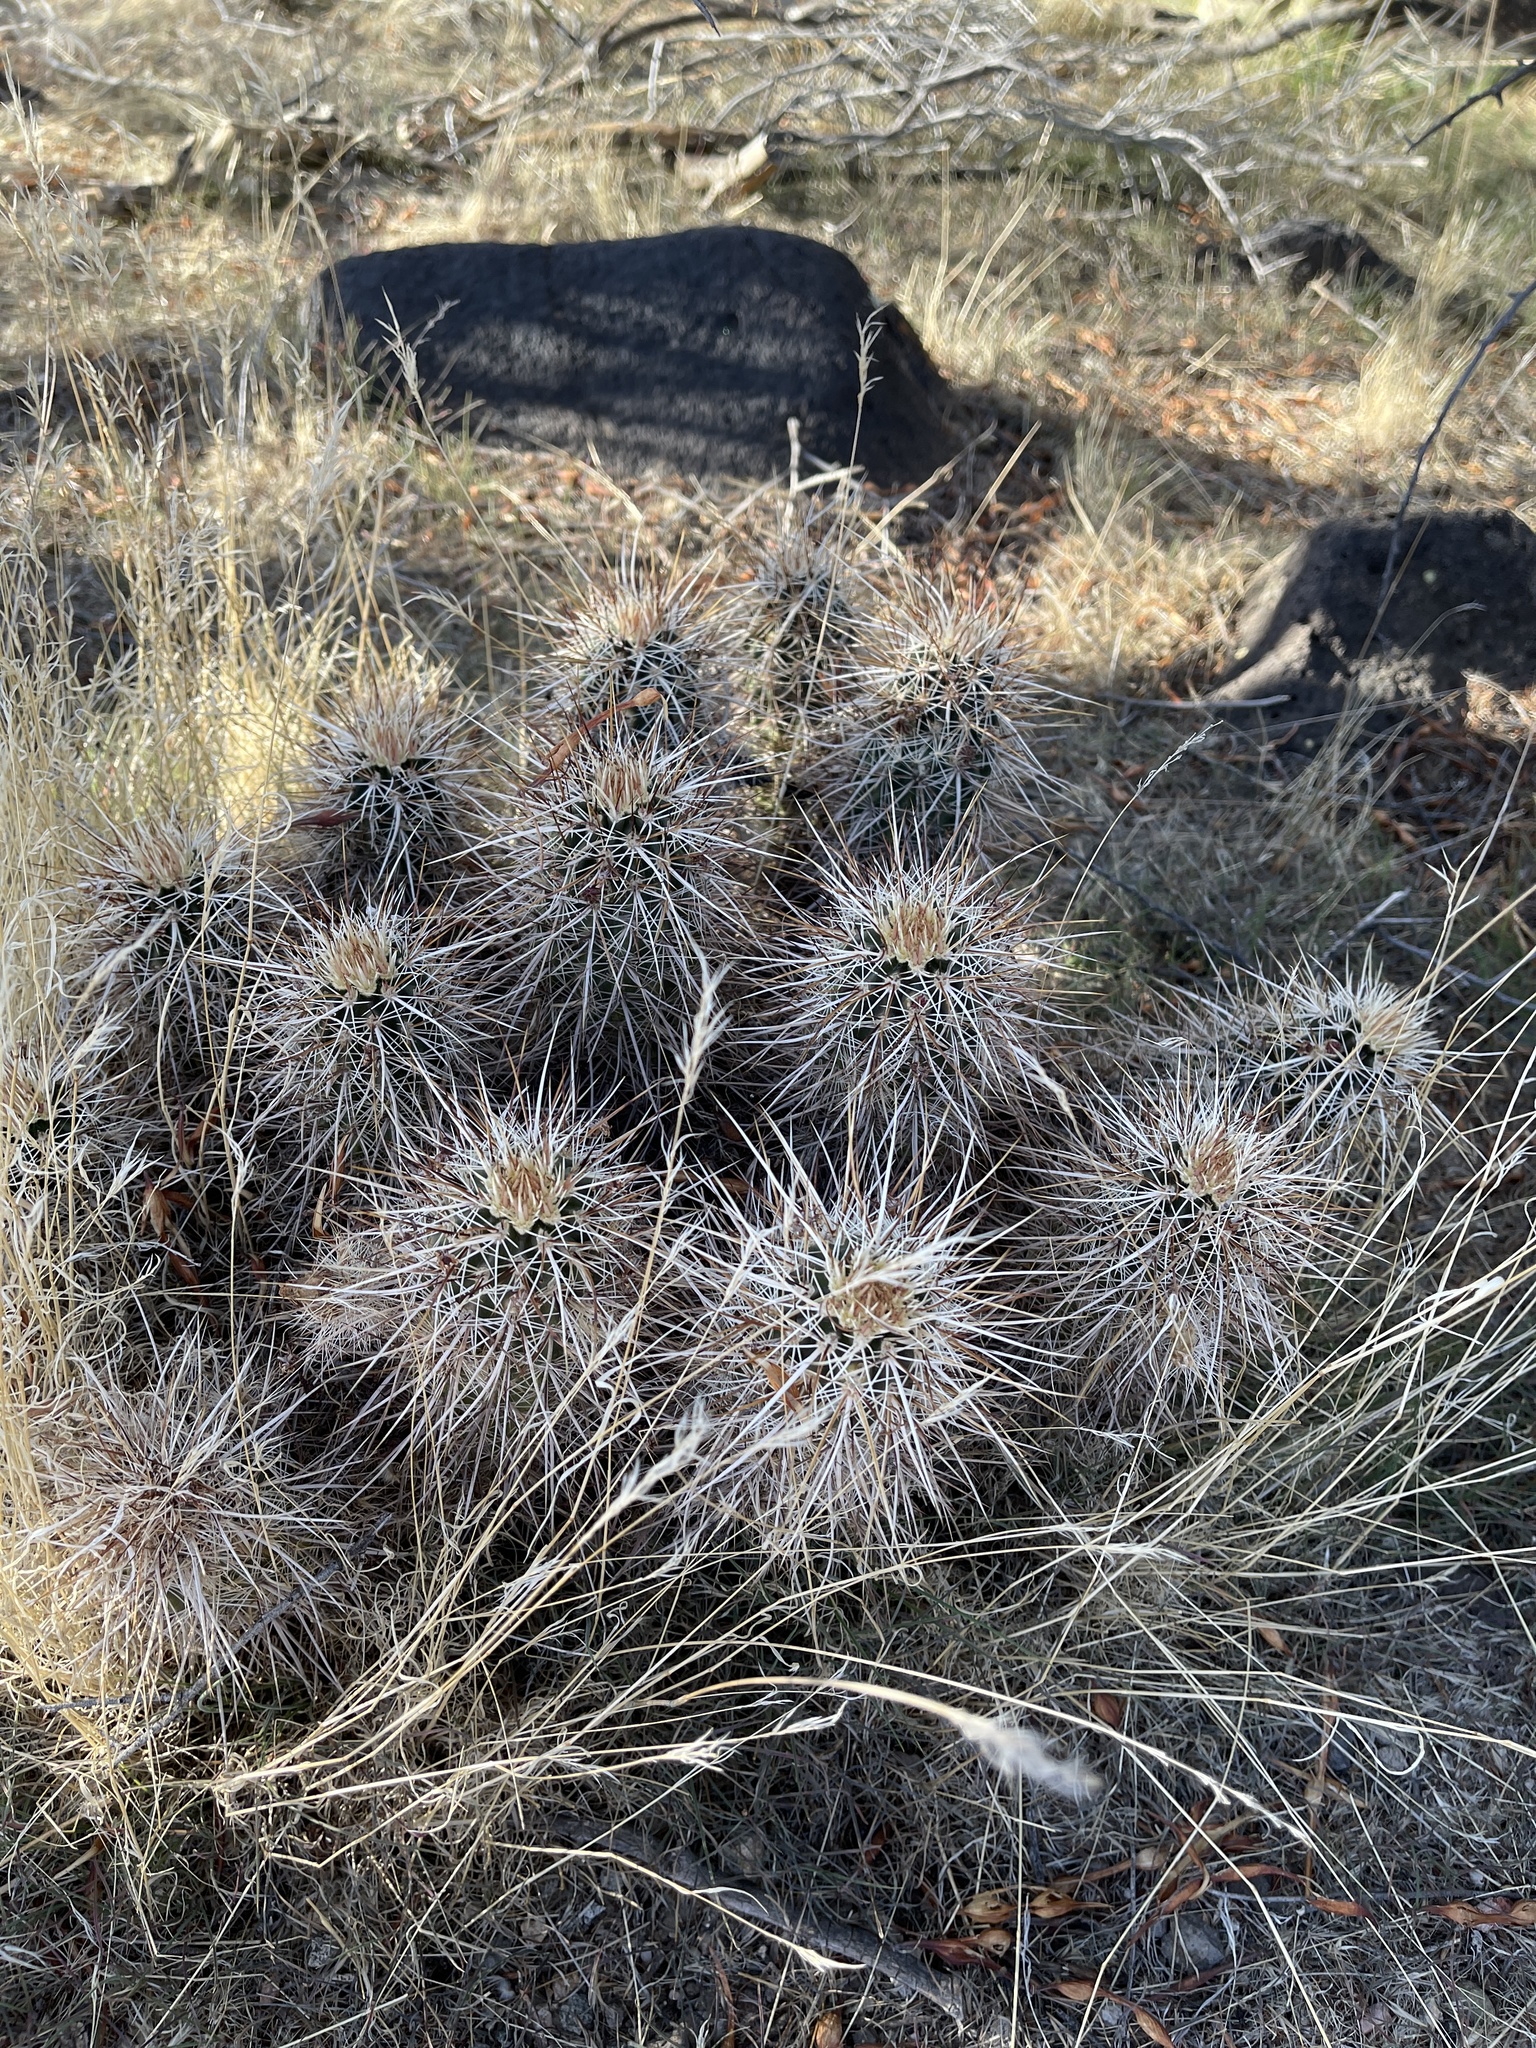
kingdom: Plantae
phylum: Tracheophyta
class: Magnoliopsida
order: Caryophyllales
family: Cactaceae
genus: Echinocereus
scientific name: Echinocereus engelmannii
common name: Engelmann's hedgehog cactus
